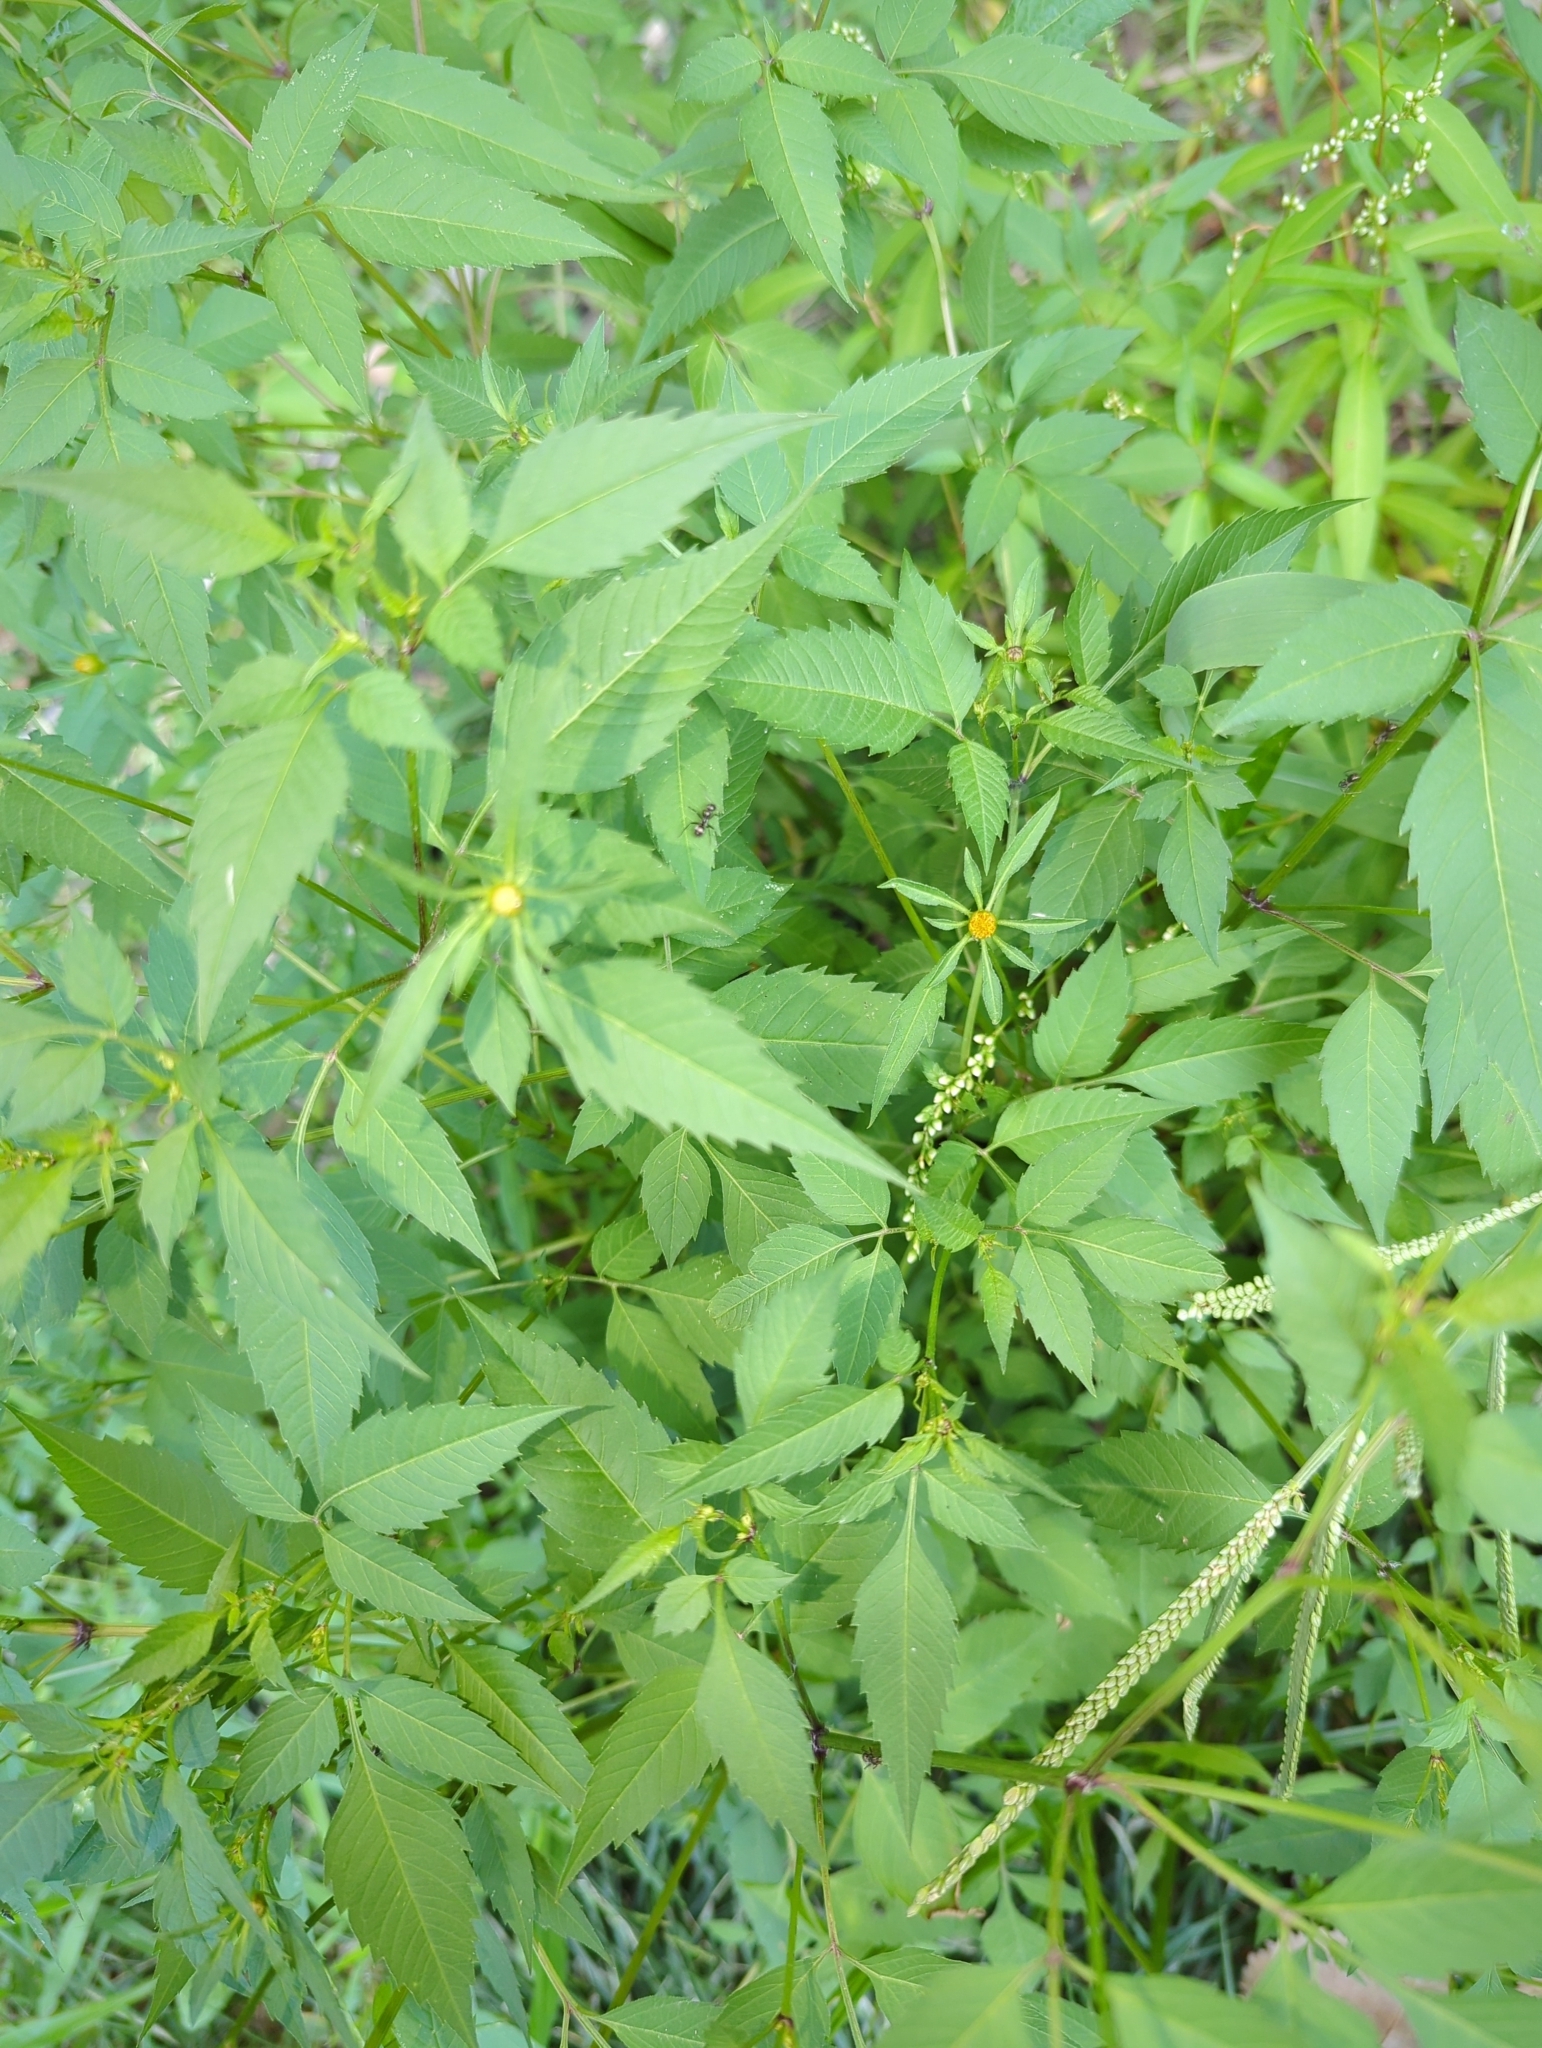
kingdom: Plantae
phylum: Tracheophyta
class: Magnoliopsida
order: Asterales
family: Asteraceae
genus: Bidens
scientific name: Bidens frondosa
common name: Beggarticks
